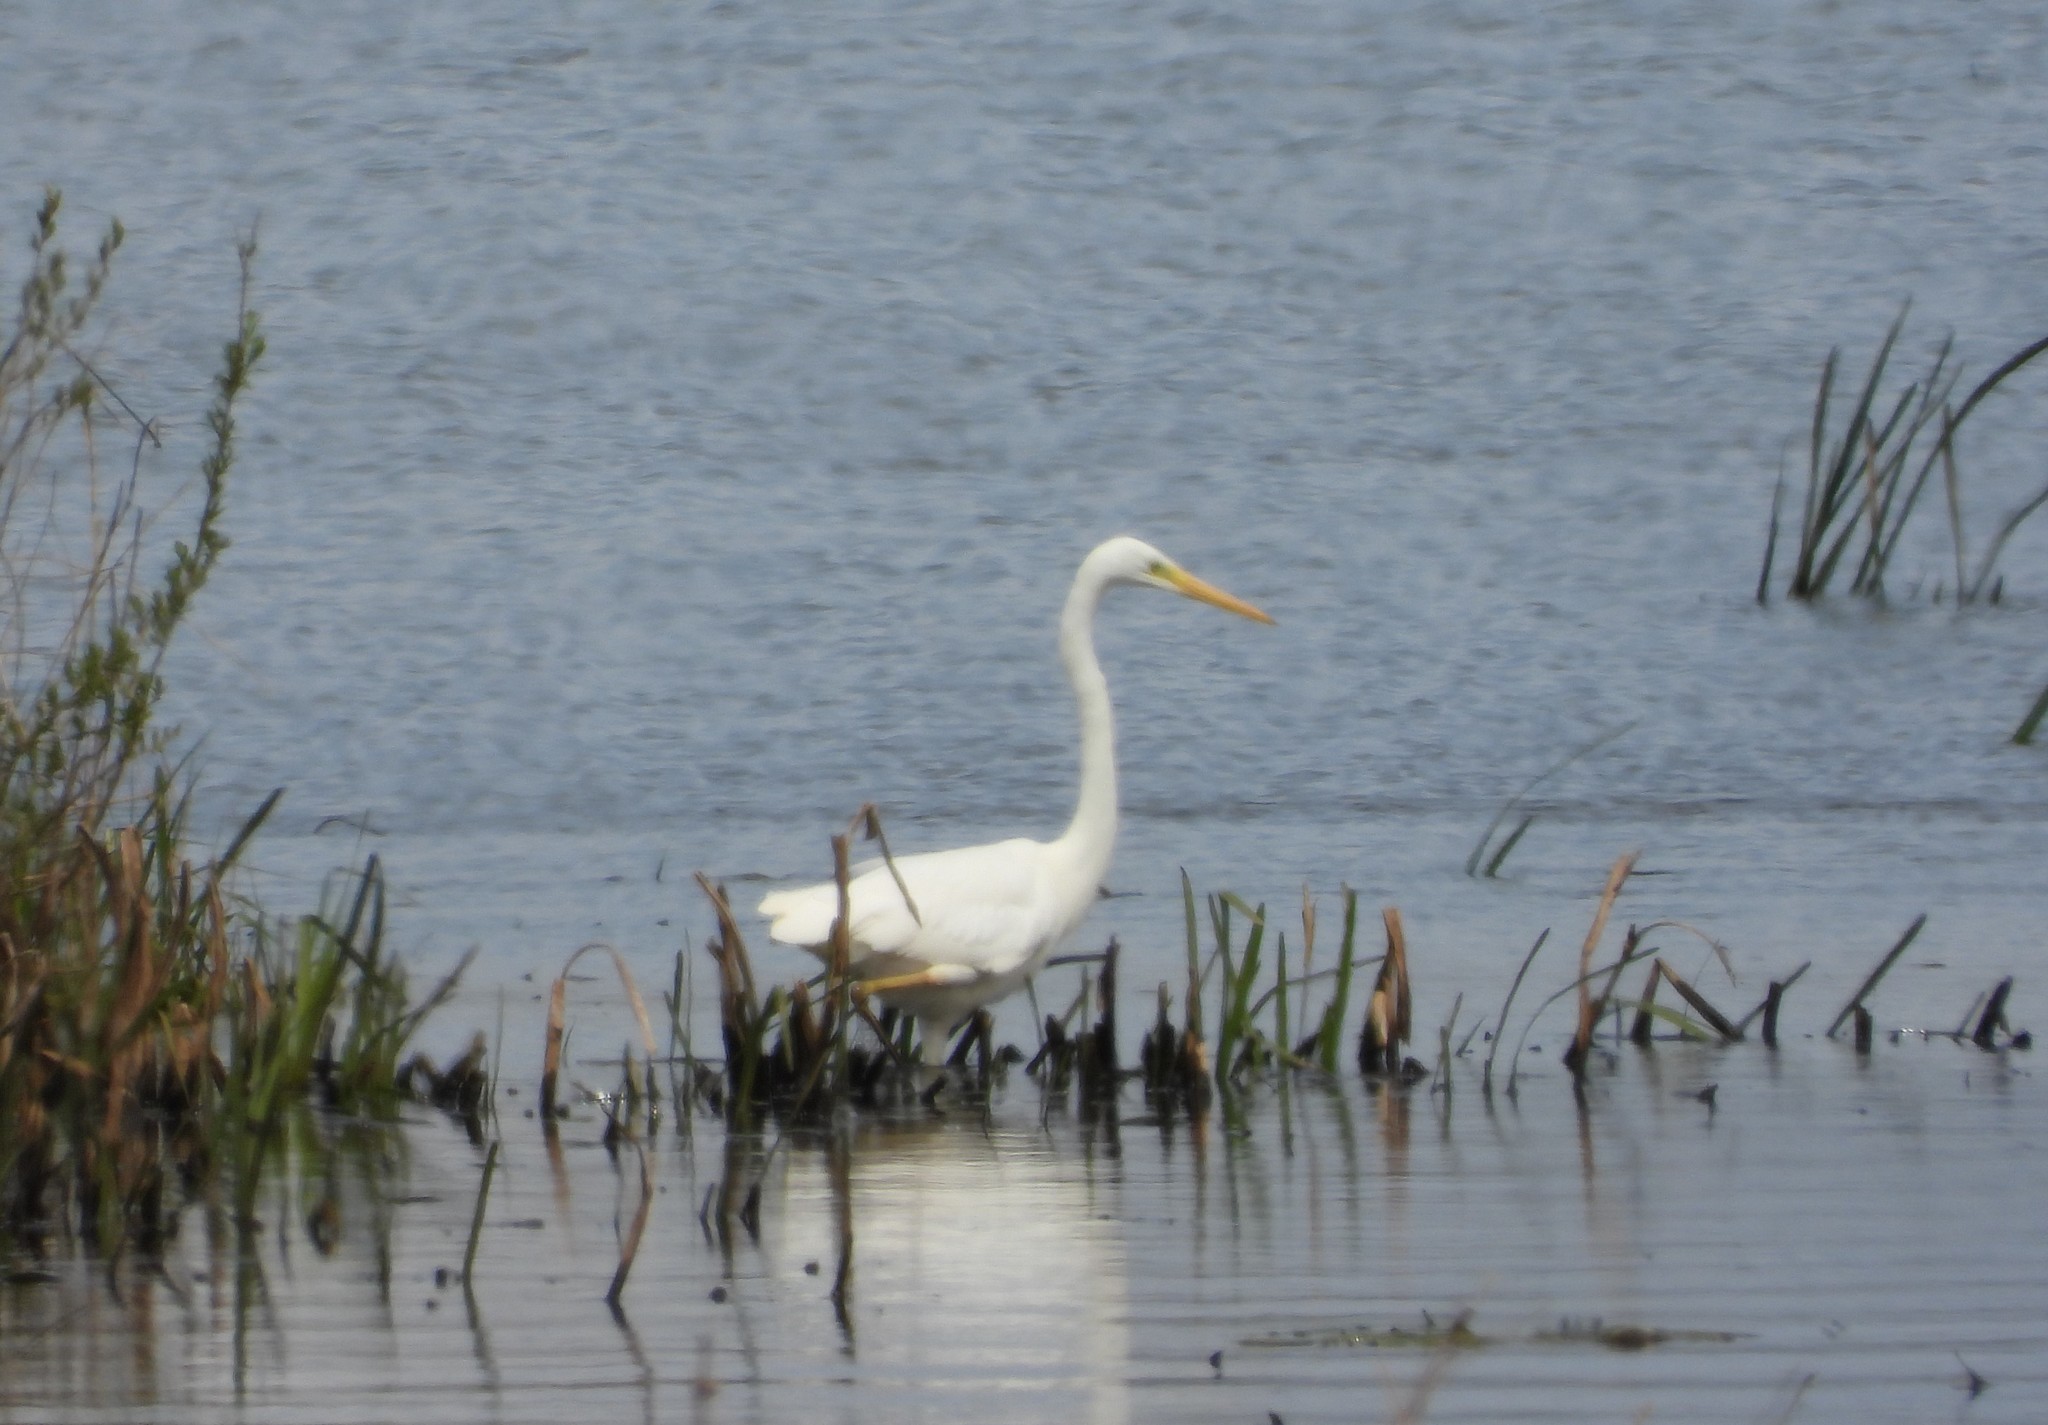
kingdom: Animalia
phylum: Chordata
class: Aves
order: Pelecaniformes
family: Ardeidae
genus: Ardea
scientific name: Ardea alba
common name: Great egret
